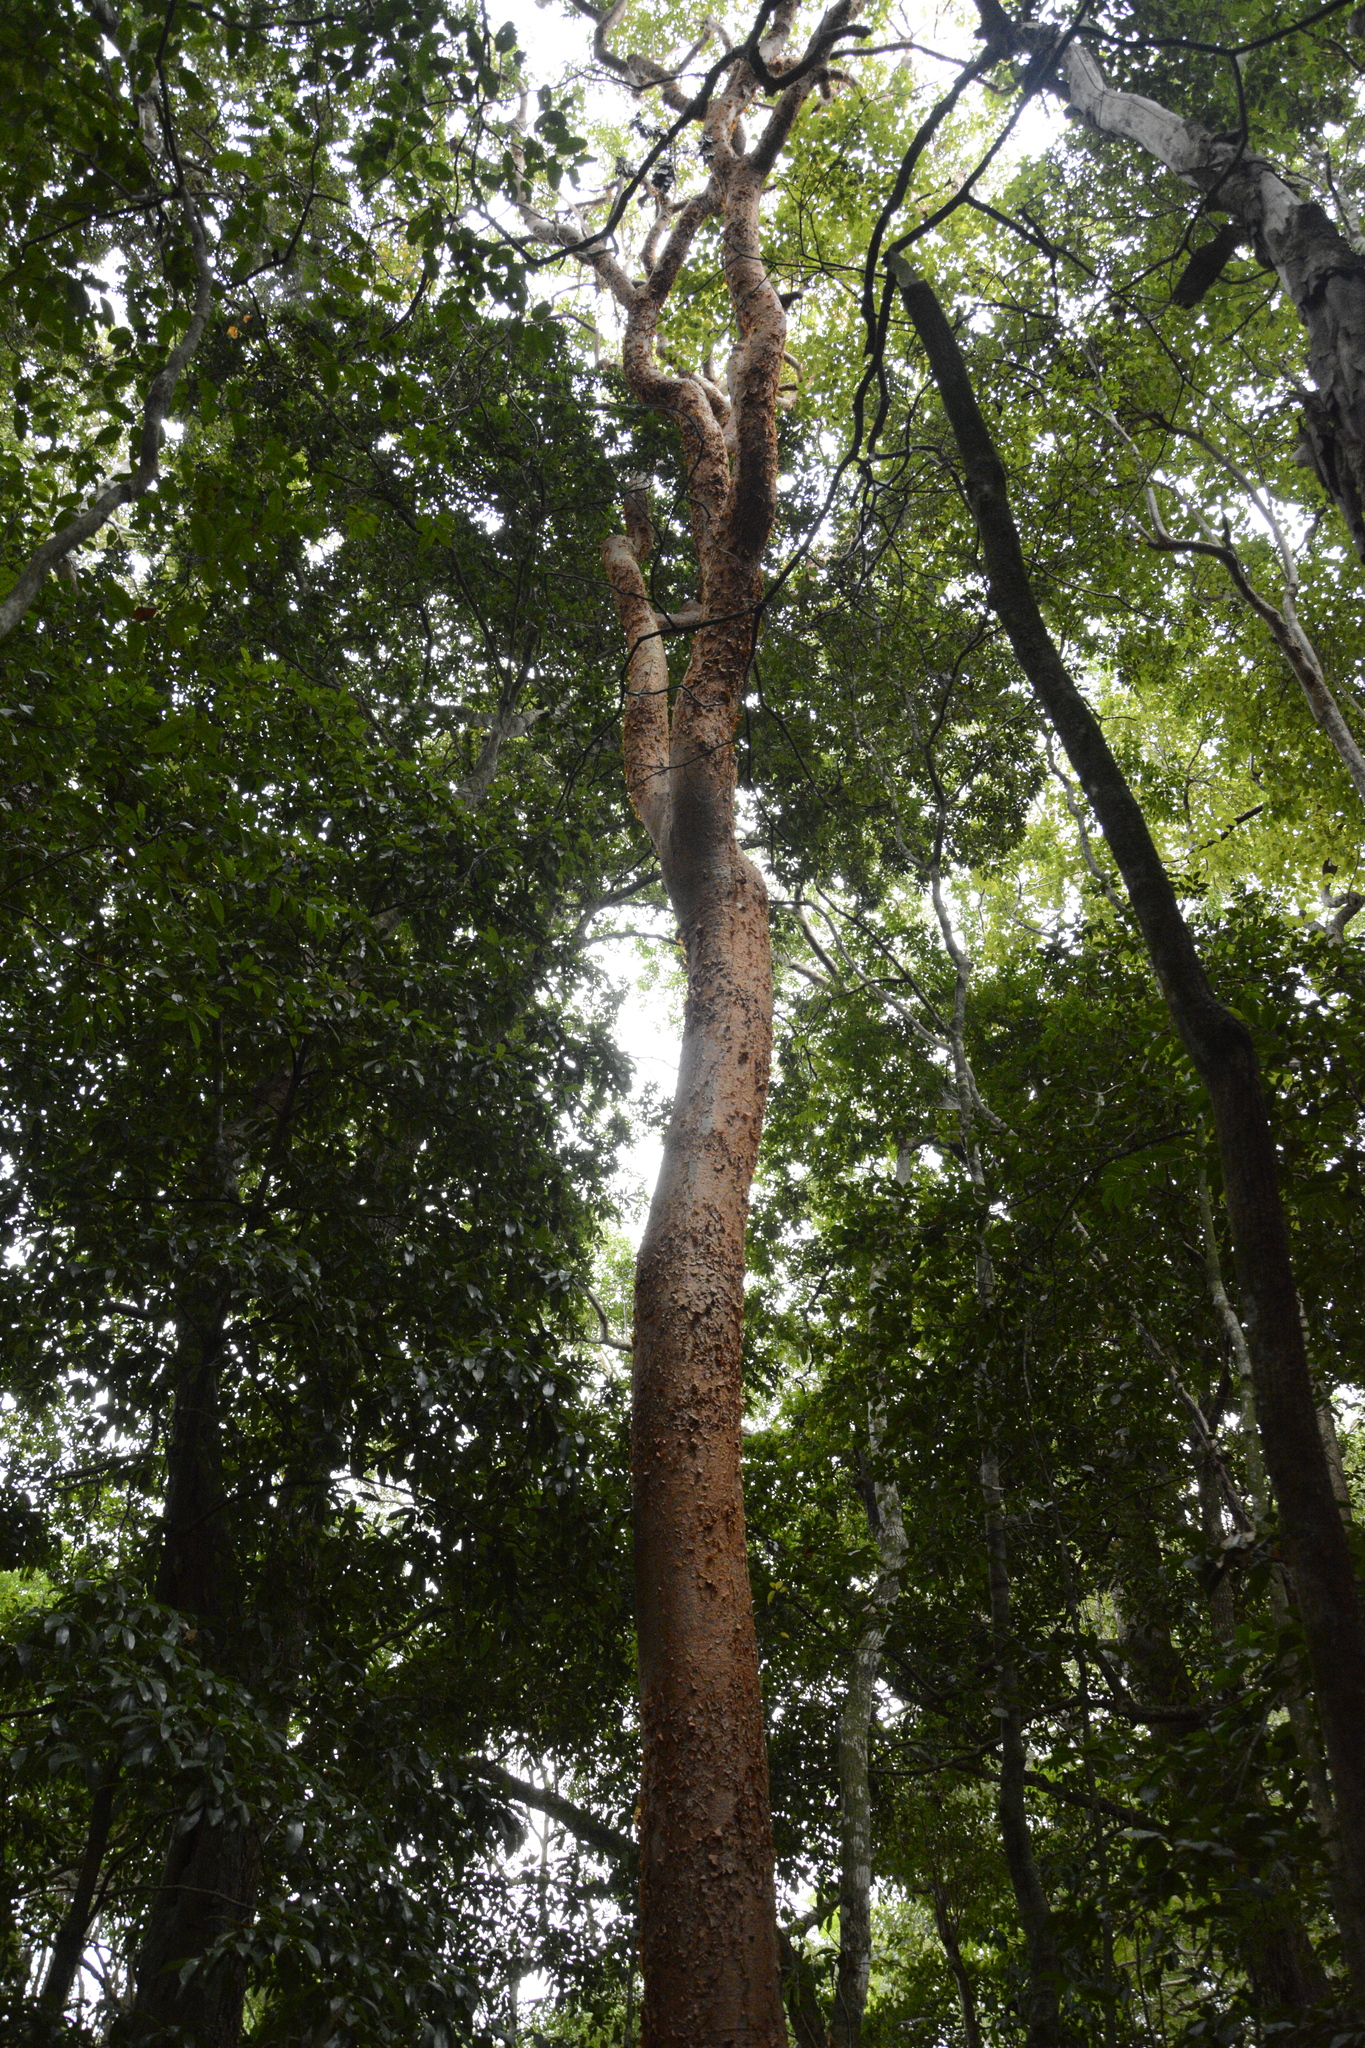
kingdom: Plantae
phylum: Tracheophyta
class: Magnoliopsida
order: Sapindales
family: Burseraceae
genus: Bursera
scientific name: Bursera simaruba
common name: Turpentine tree
